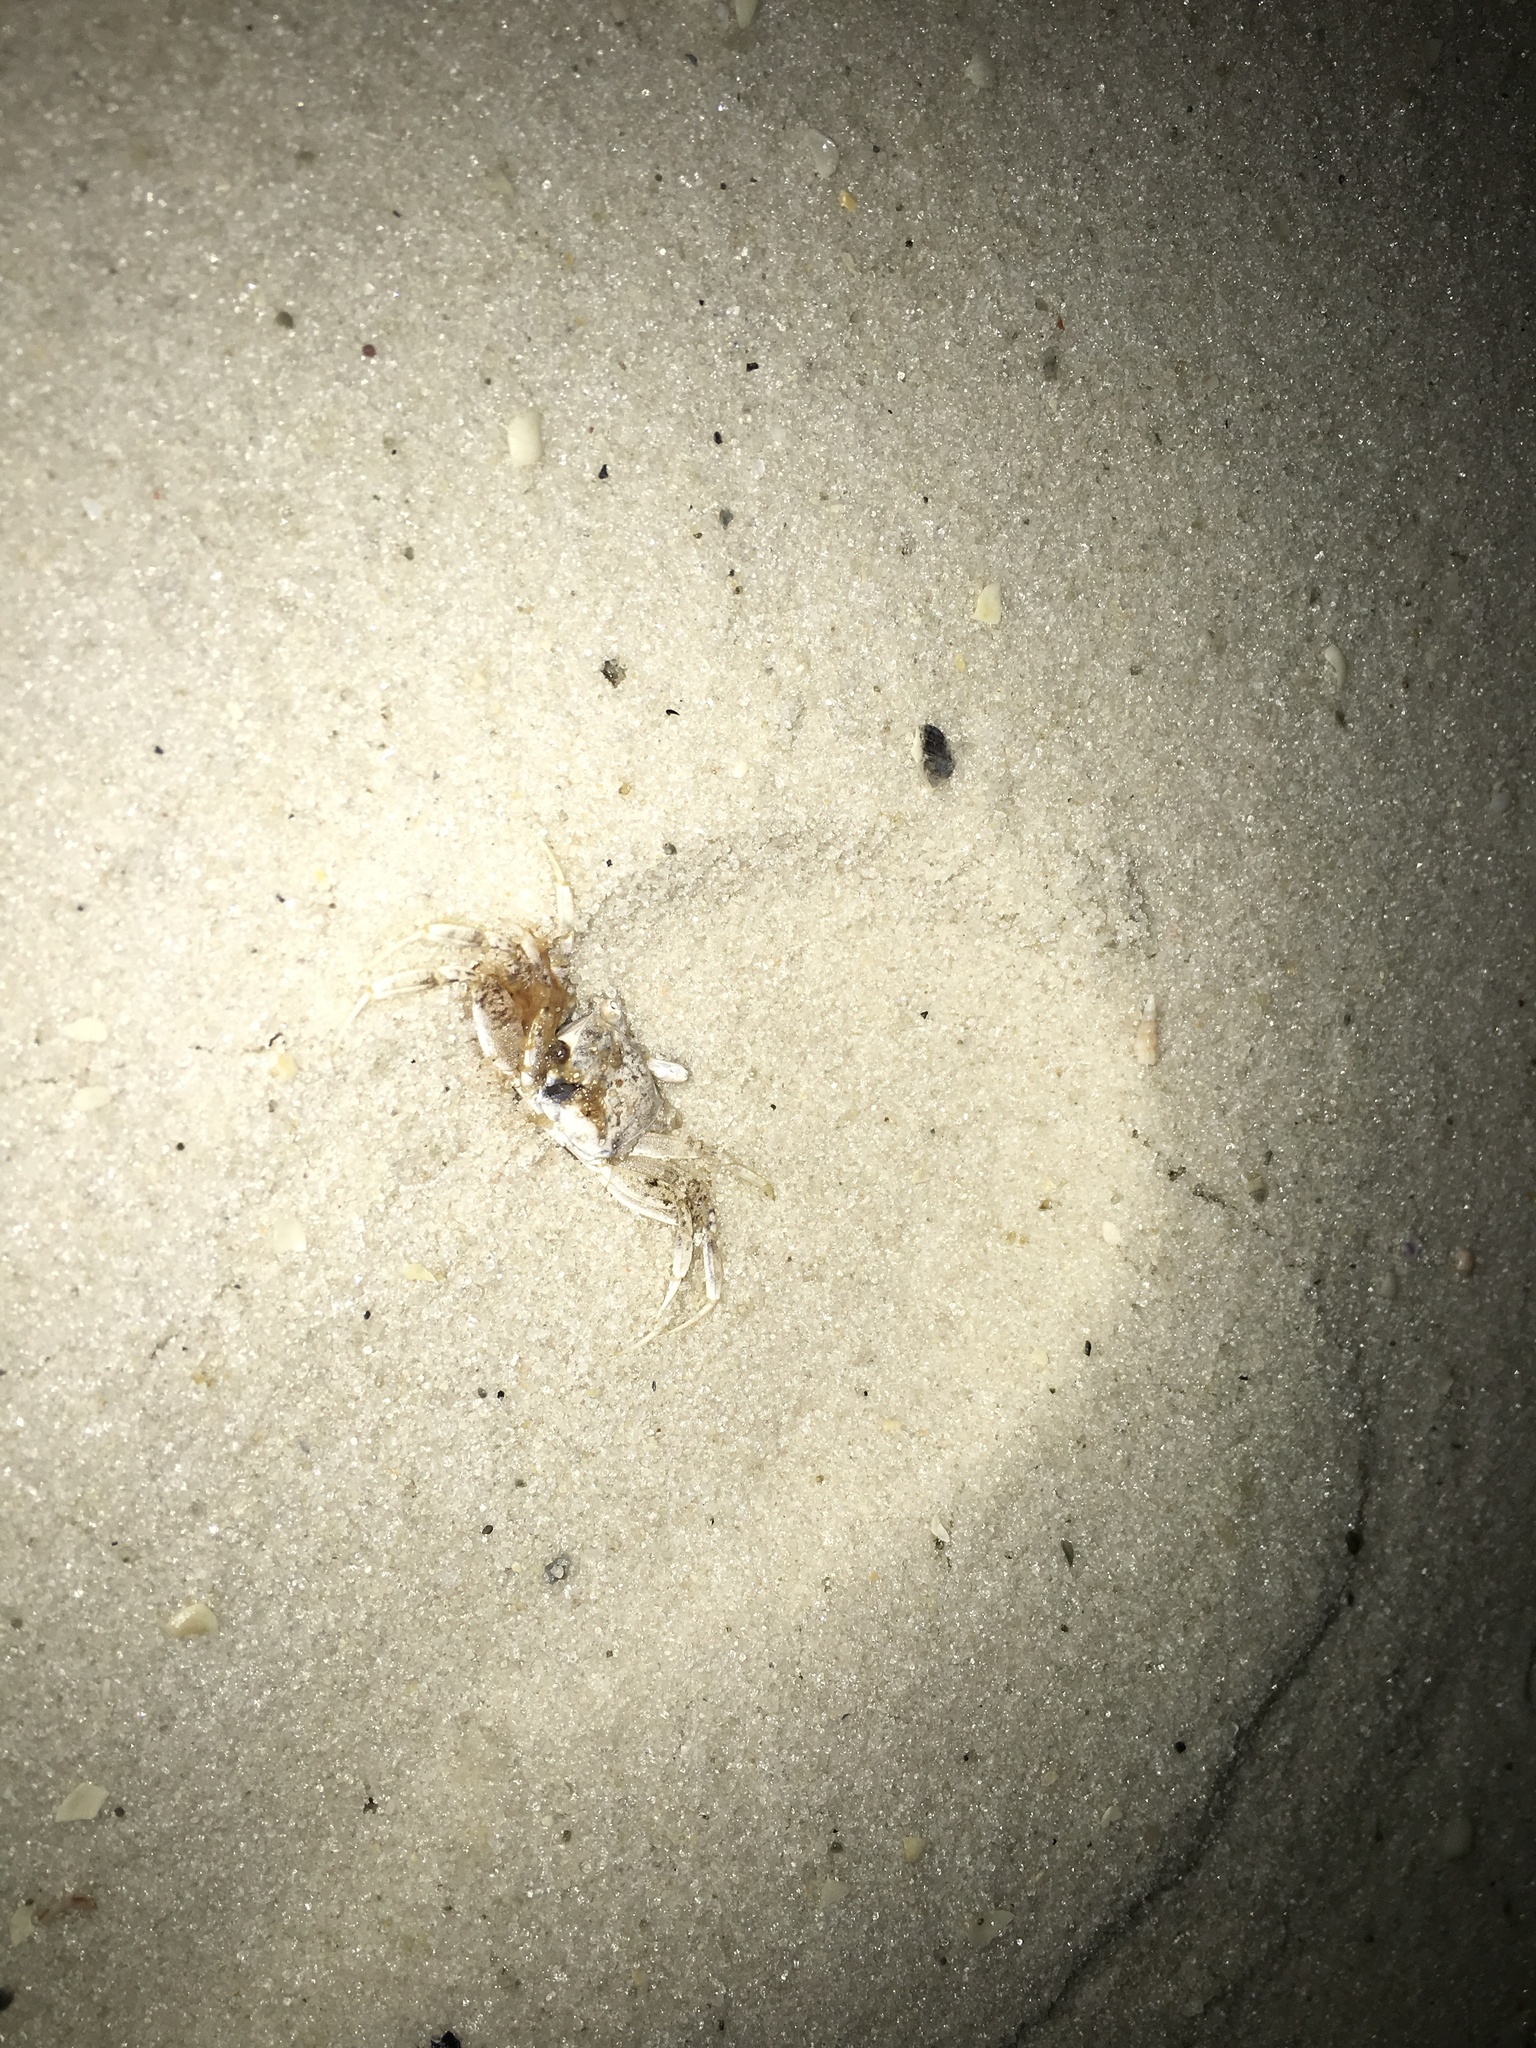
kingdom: Animalia
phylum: Arthropoda
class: Malacostraca
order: Decapoda
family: Ocypodidae
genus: Ocypode
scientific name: Ocypode quadrata
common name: Ghost crab
